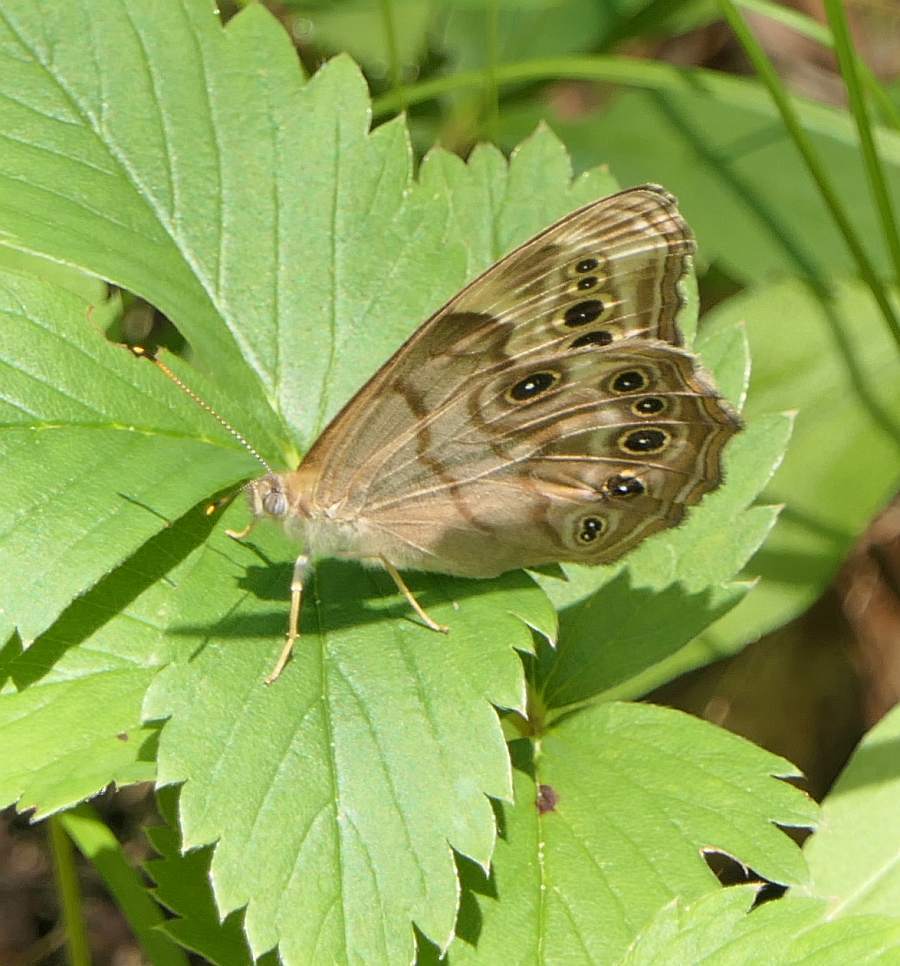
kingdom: Animalia
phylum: Arthropoda
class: Insecta
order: Lepidoptera
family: Nymphalidae
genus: Lethe
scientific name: Lethe anthedon
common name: Northern pearly-eye
